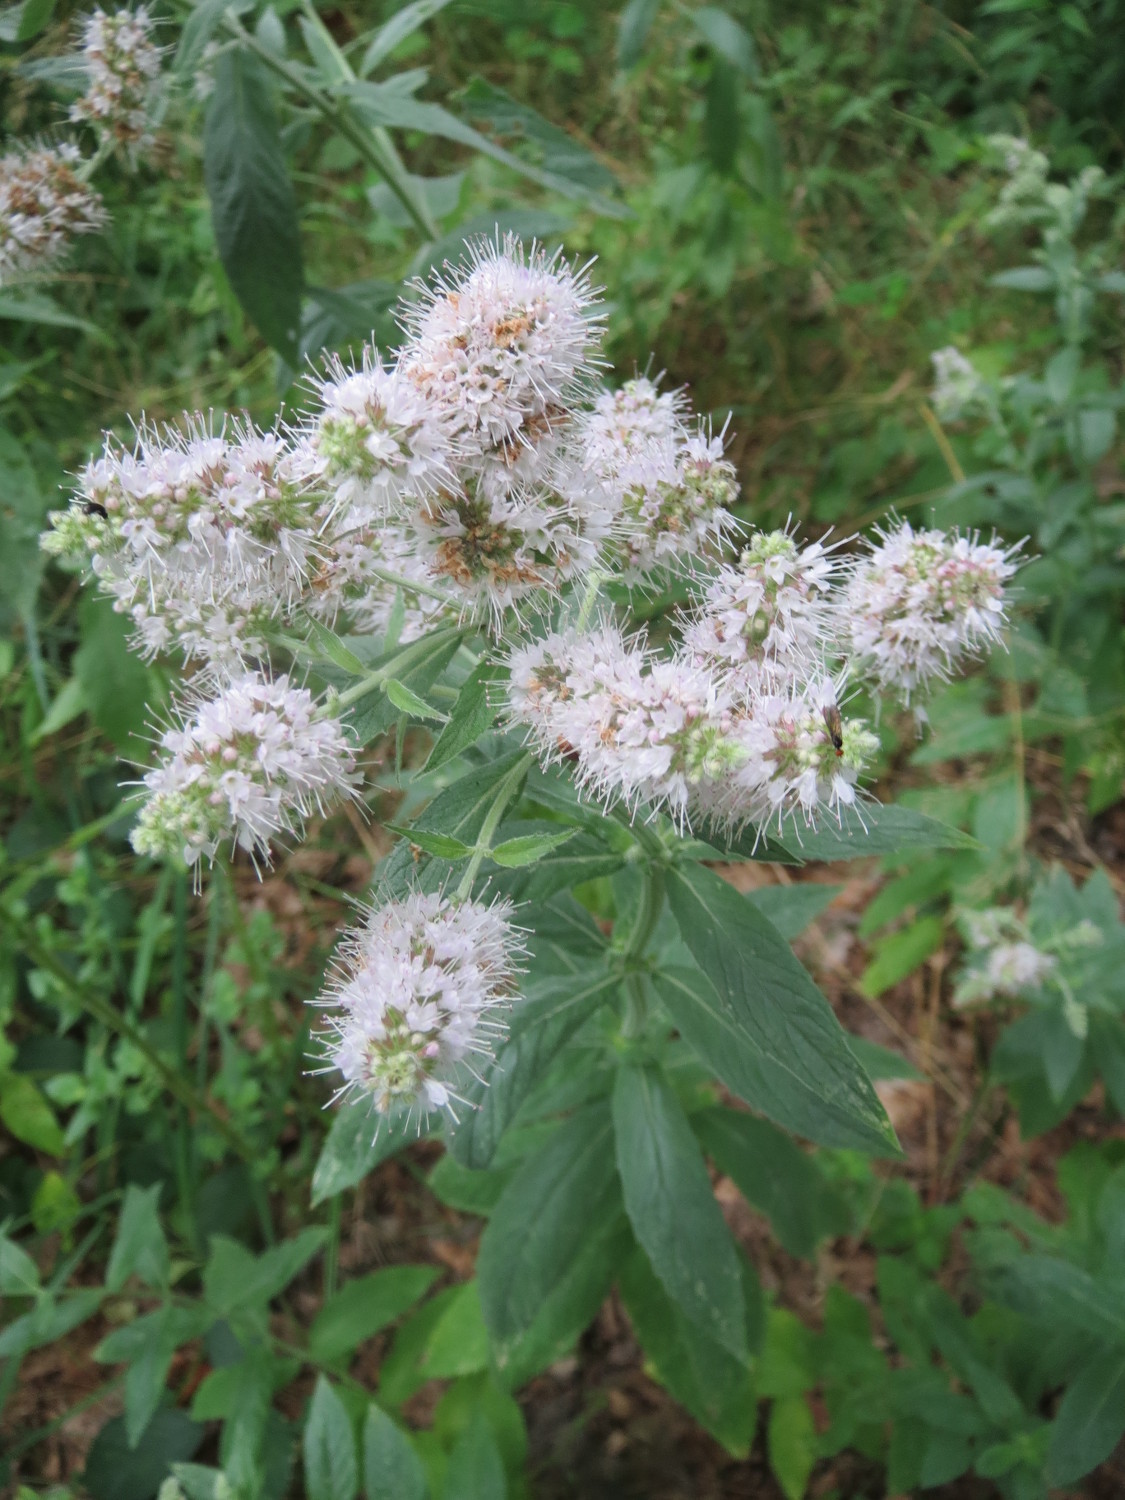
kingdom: Plantae
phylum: Tracheophyta
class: Magnoliopsida
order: Lamiales
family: Lamiaceae
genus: Mentha
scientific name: Mentha longifolia
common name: Horse mint
